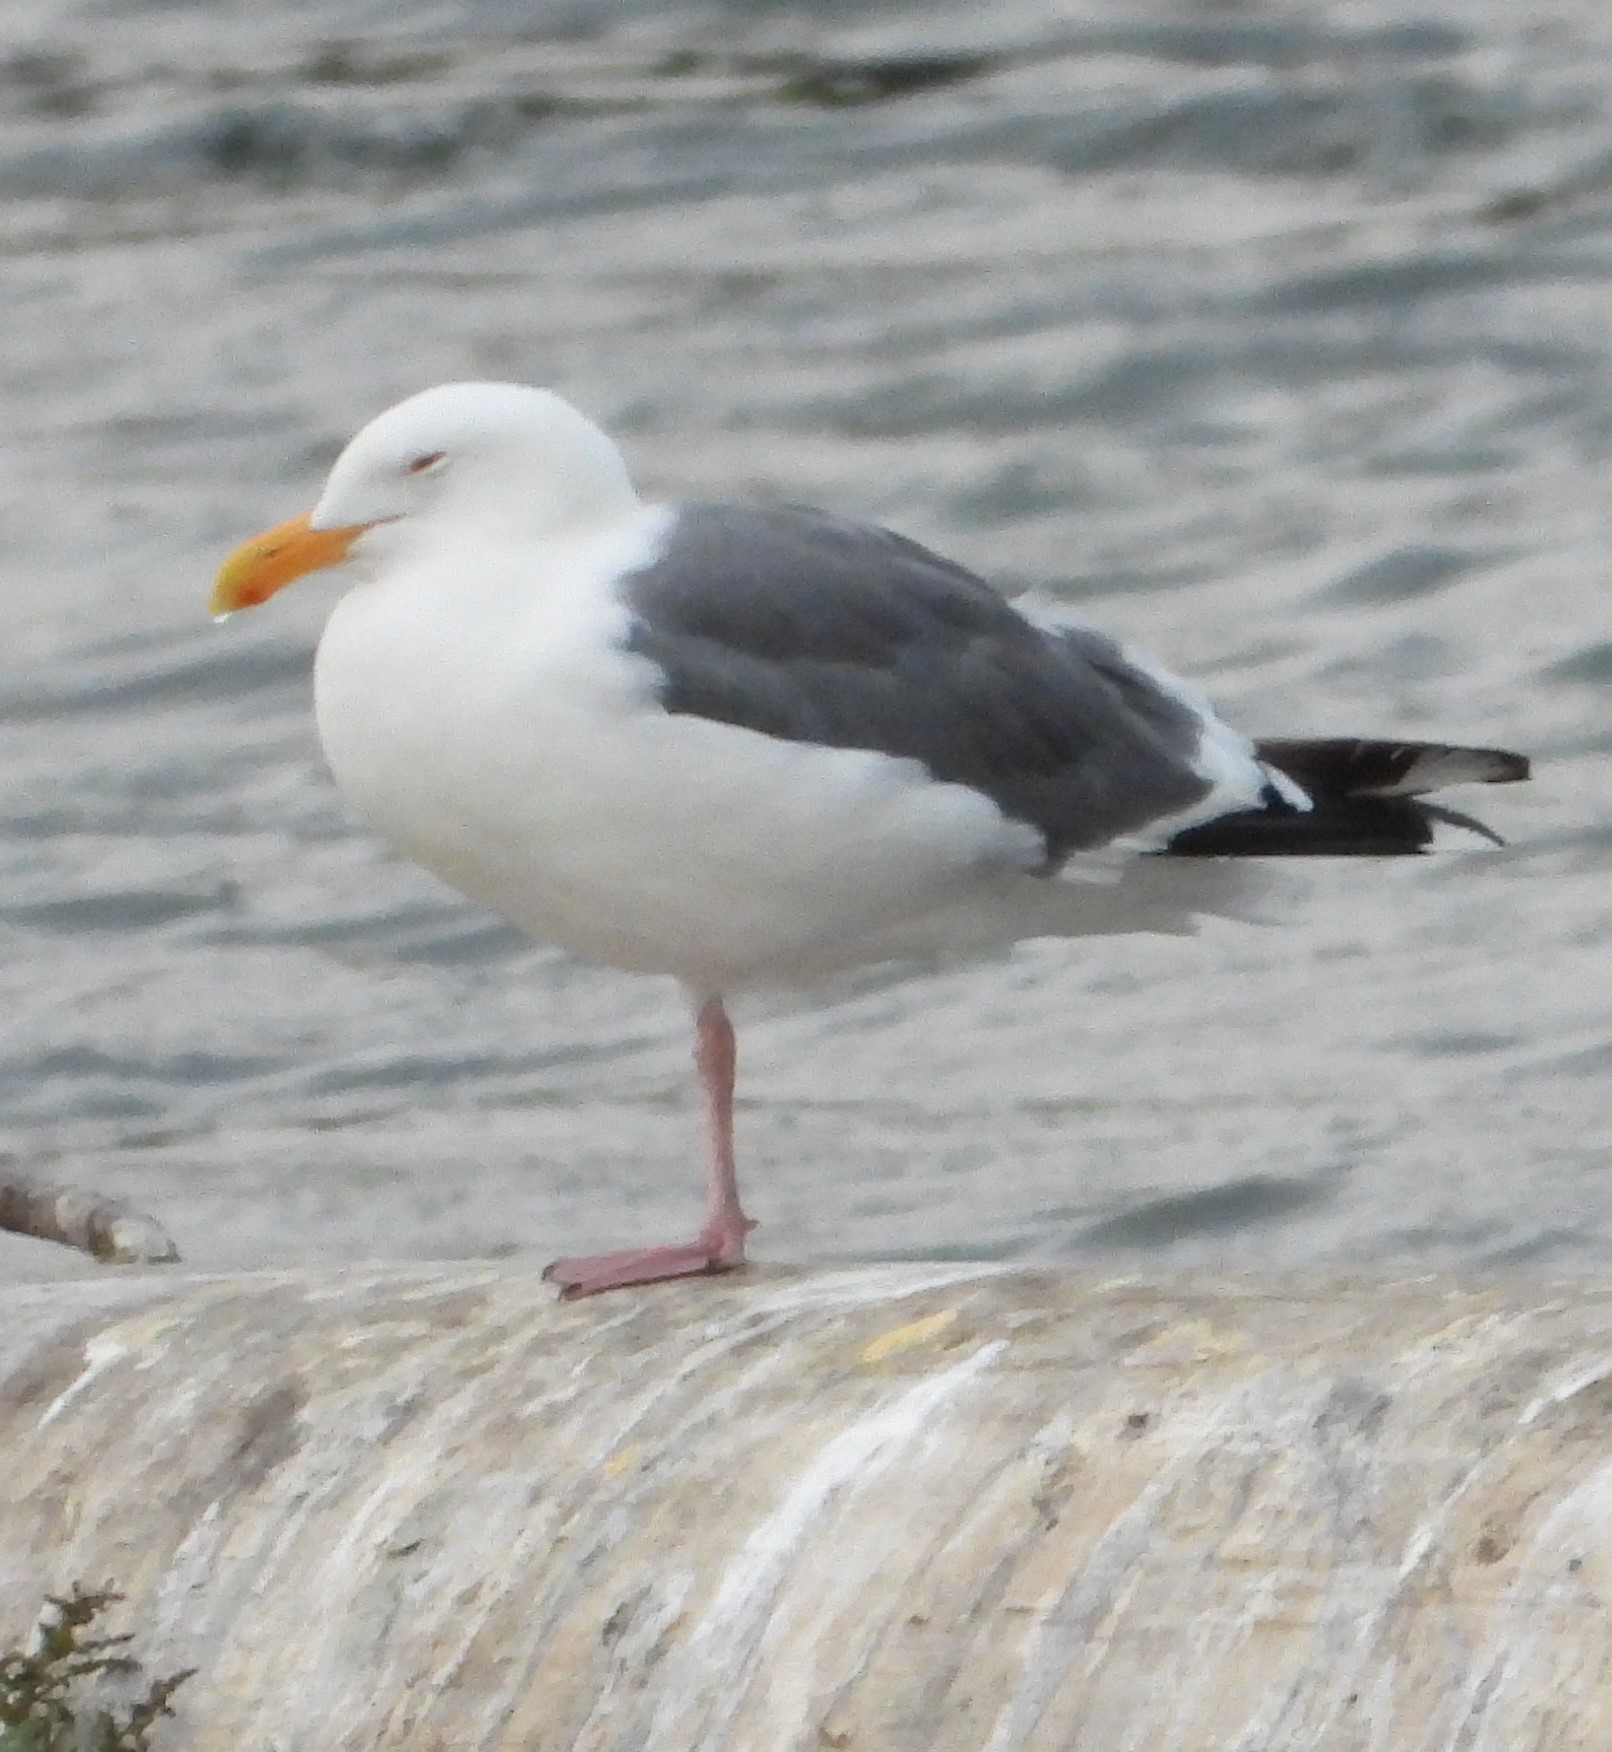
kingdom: Animalia
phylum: Chordata
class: Aves
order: Charadriiformes
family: Laridae
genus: Larus
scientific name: Larus occidentalis
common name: Western gull
